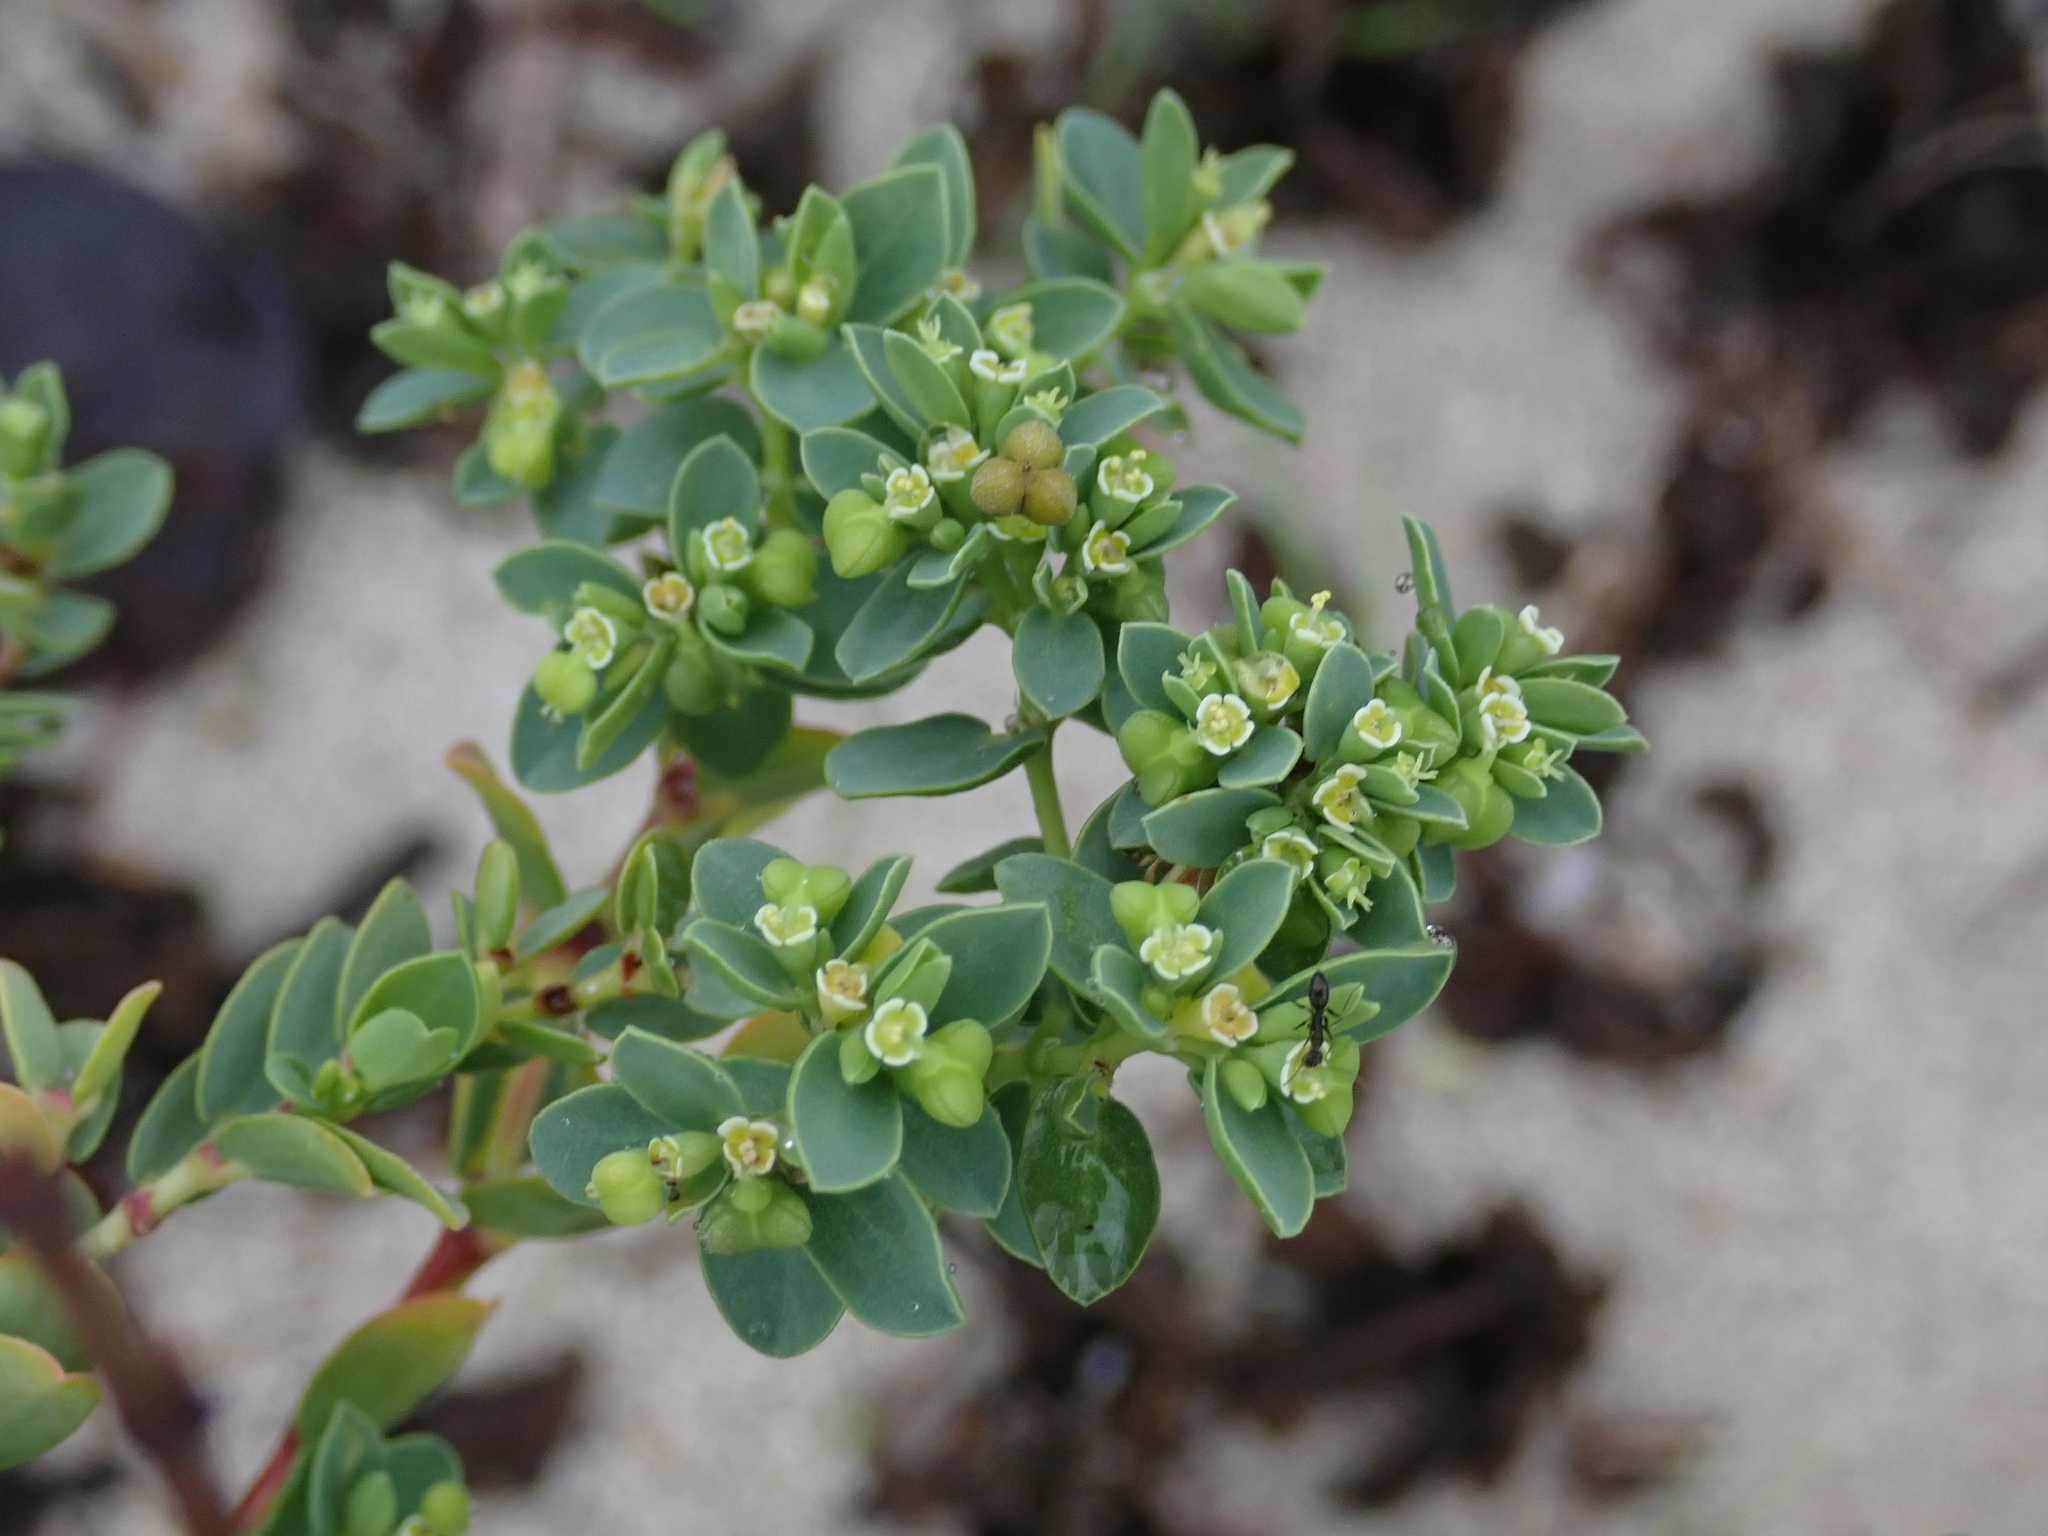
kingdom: Plantae
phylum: Tracheophyta
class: Magnoliopsida
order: Malpighiales
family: Euphorbiaceae
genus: Euphorbia
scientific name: Euphorbia mesembryanthemifolia
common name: Coastal beach sandmat
